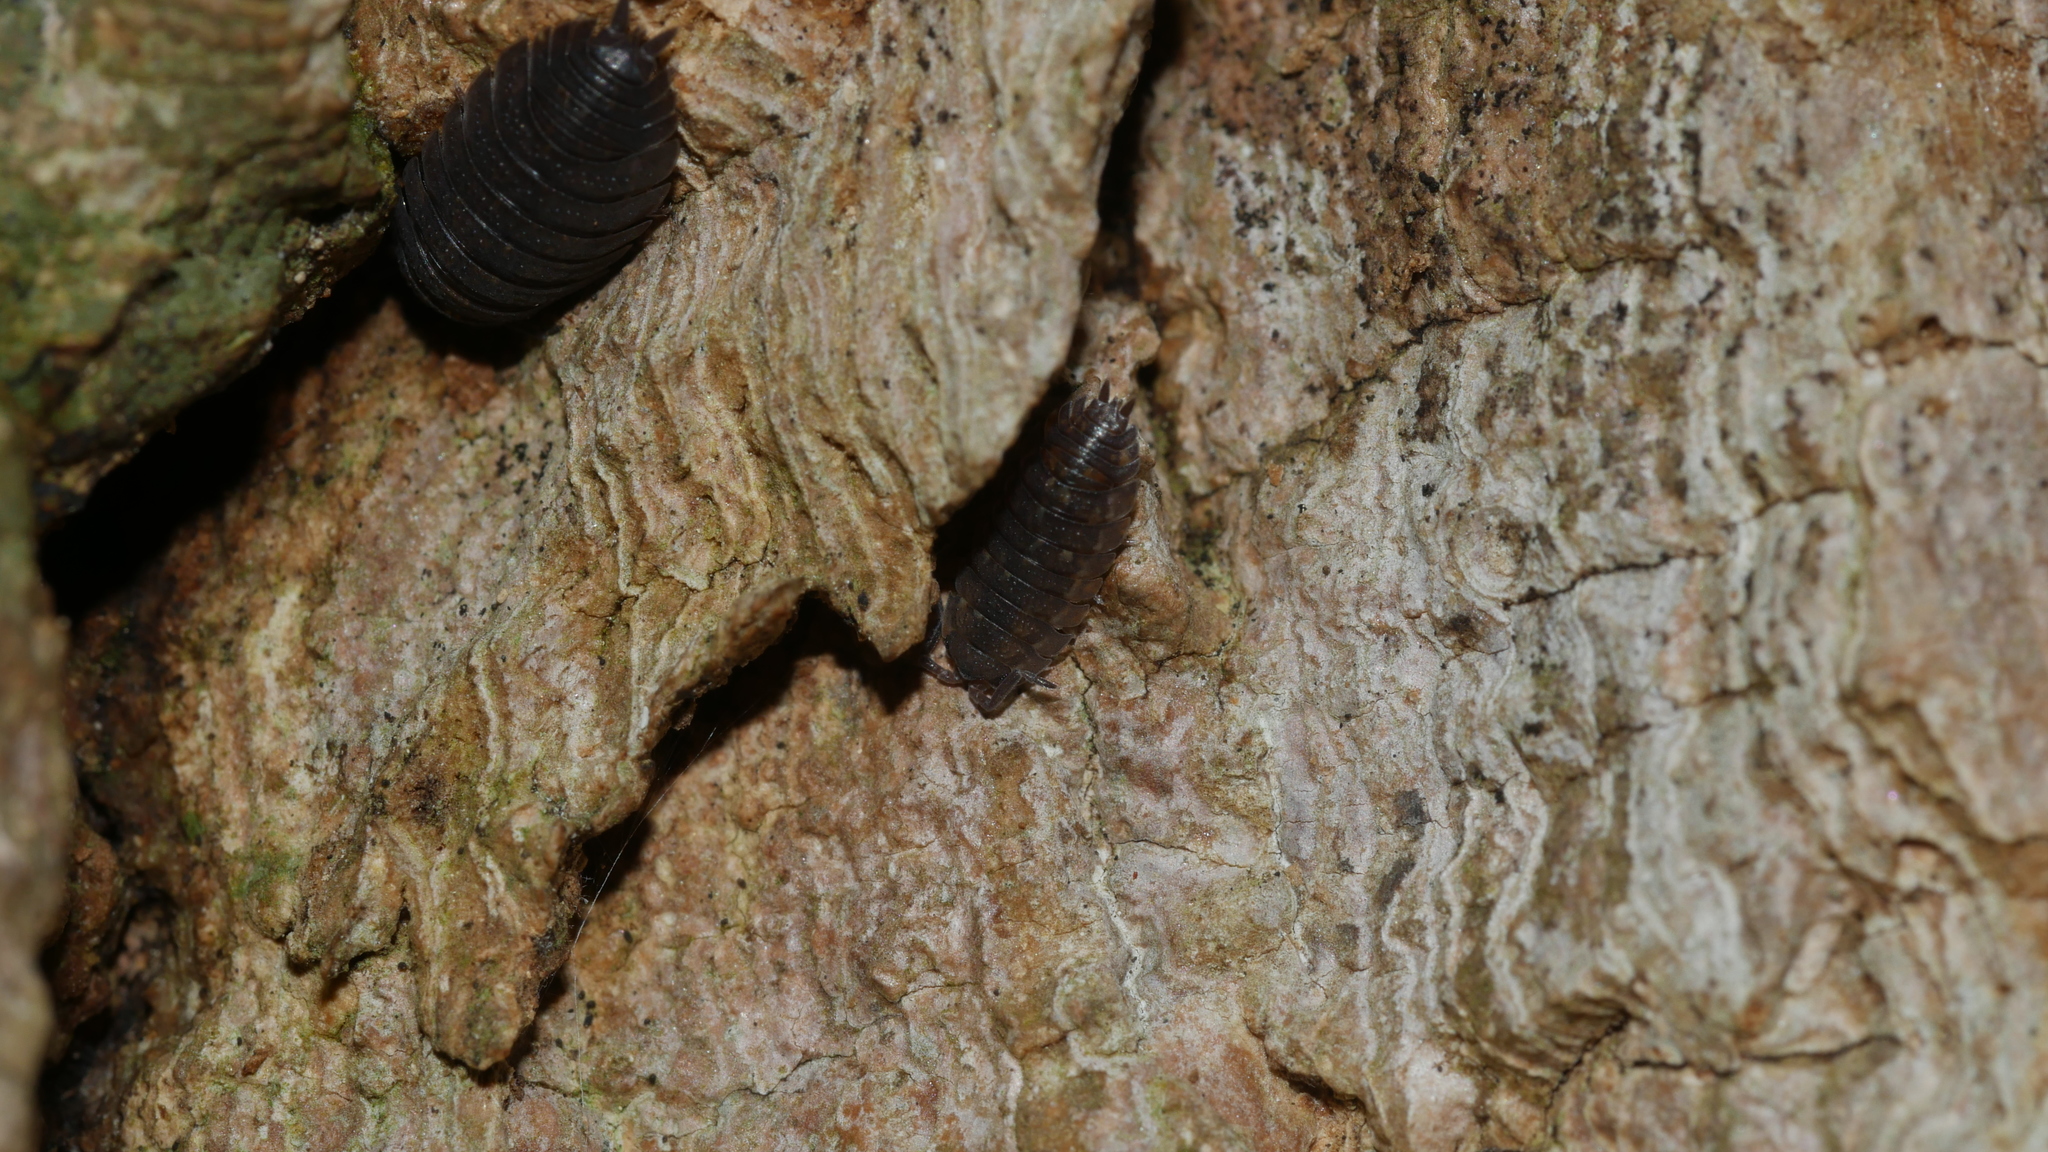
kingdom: Animalia
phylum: Arthropoda
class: Malacostraca
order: Isopoda
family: Porcellionidae
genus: Porcellio
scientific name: Porcellio scaber
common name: Common rough woodlouse
